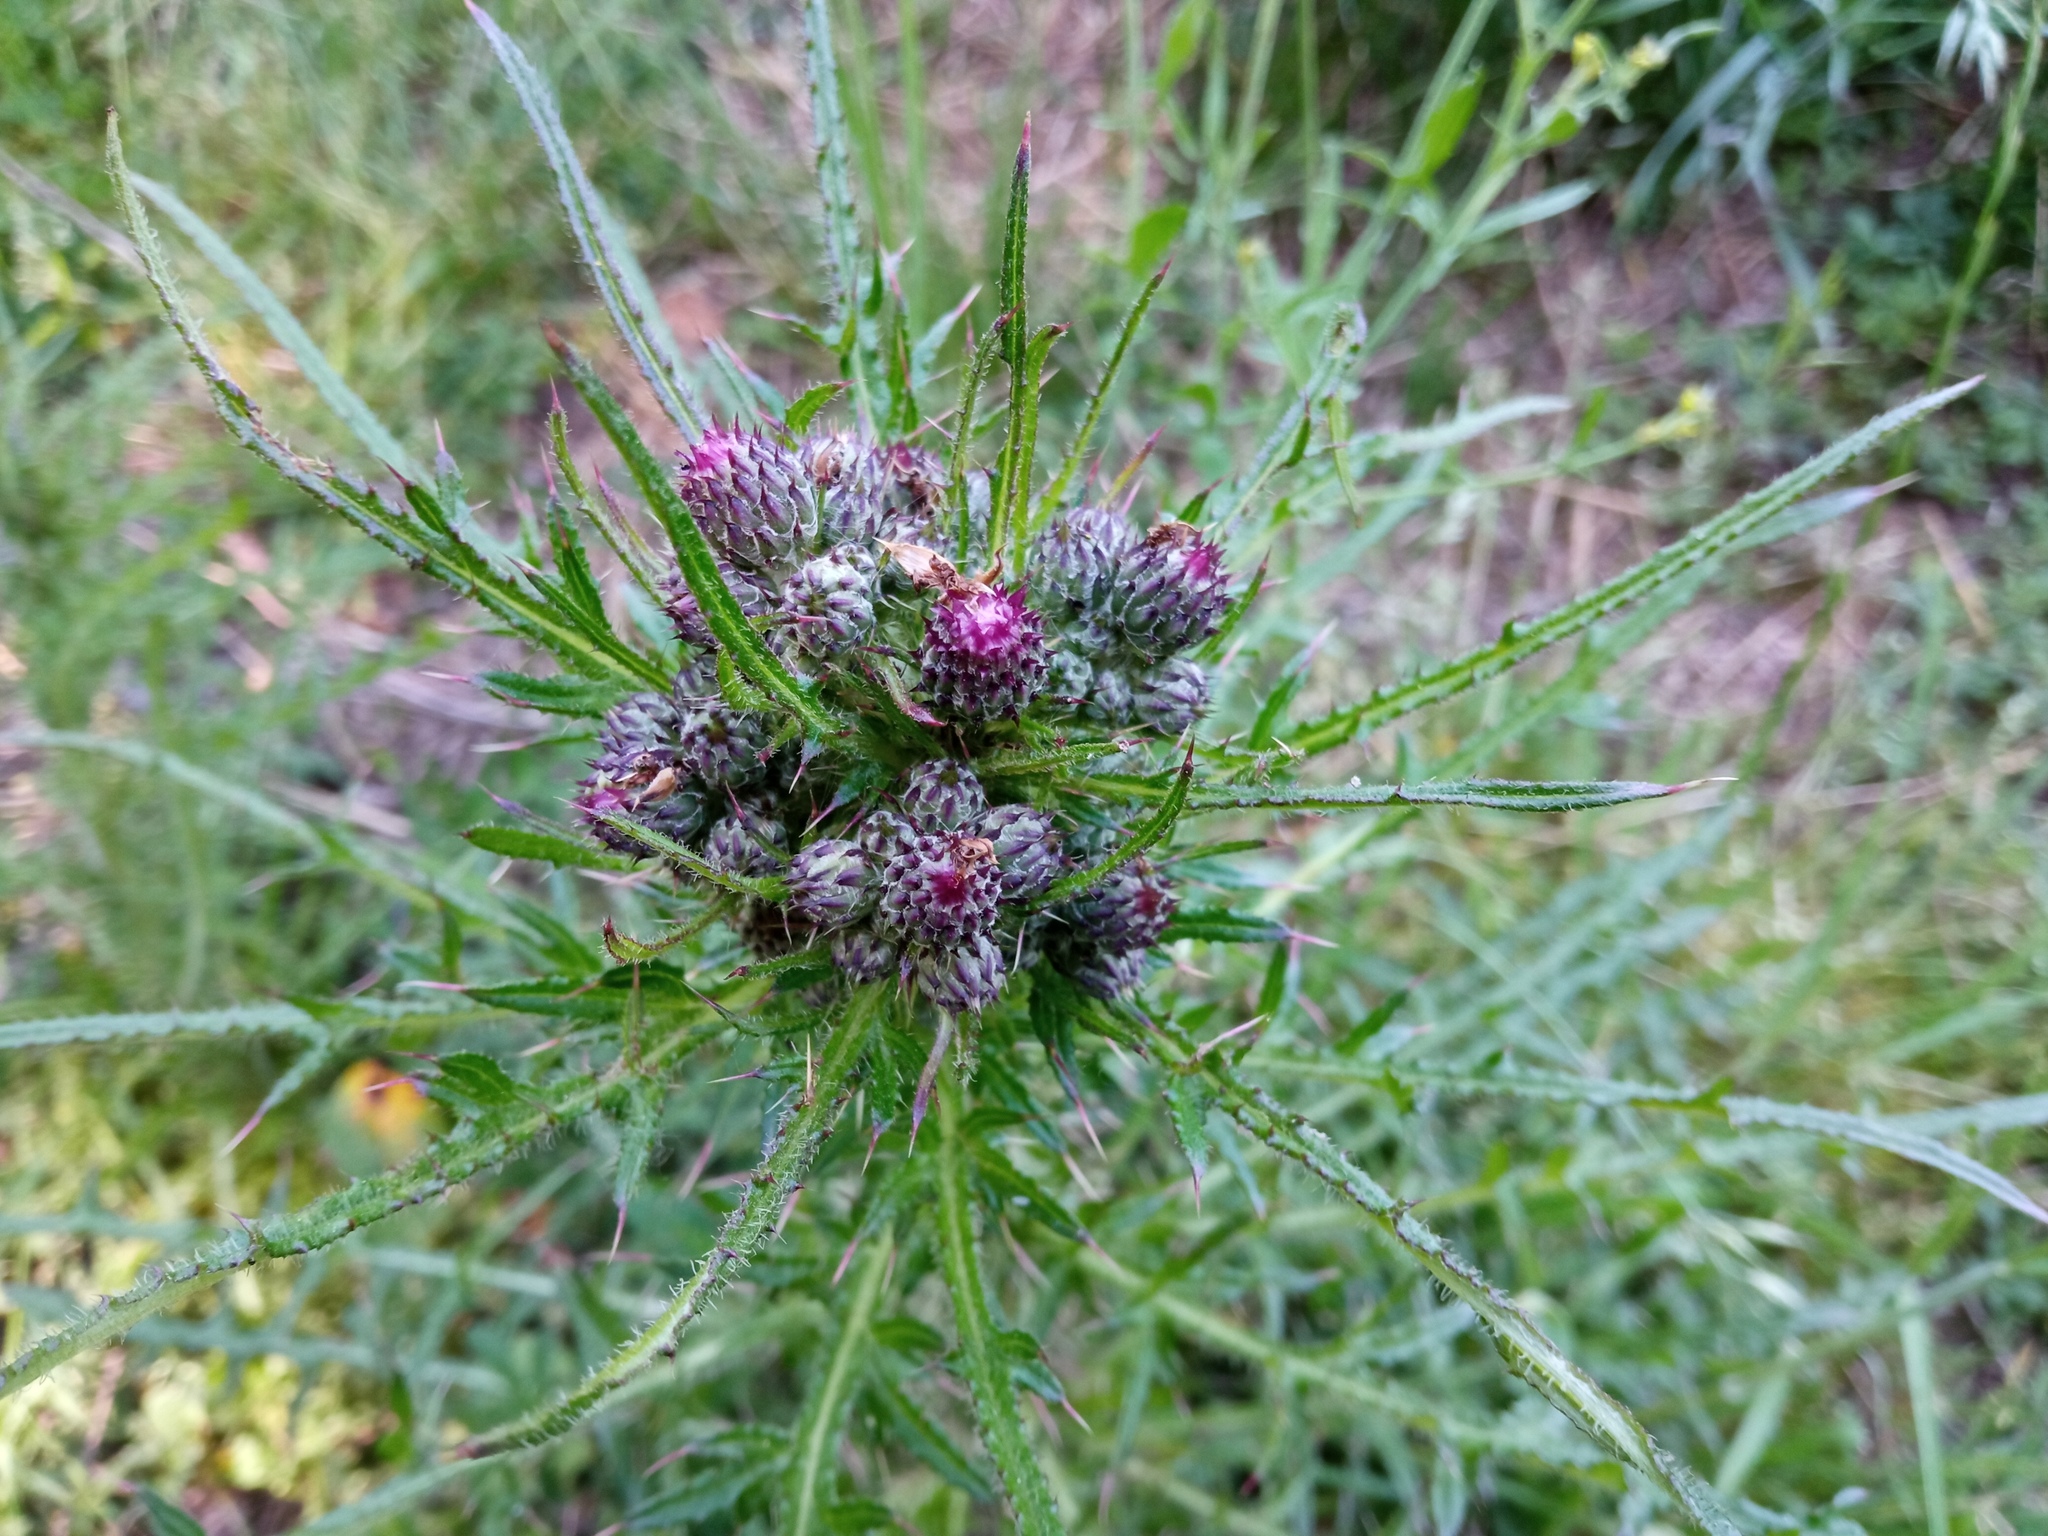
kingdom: Plantae
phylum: Tracheophyta
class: Magnoliopsida
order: Asterales
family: Asteraceae
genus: Cirsium
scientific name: Cirsium palustre
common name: Marsh thistle
